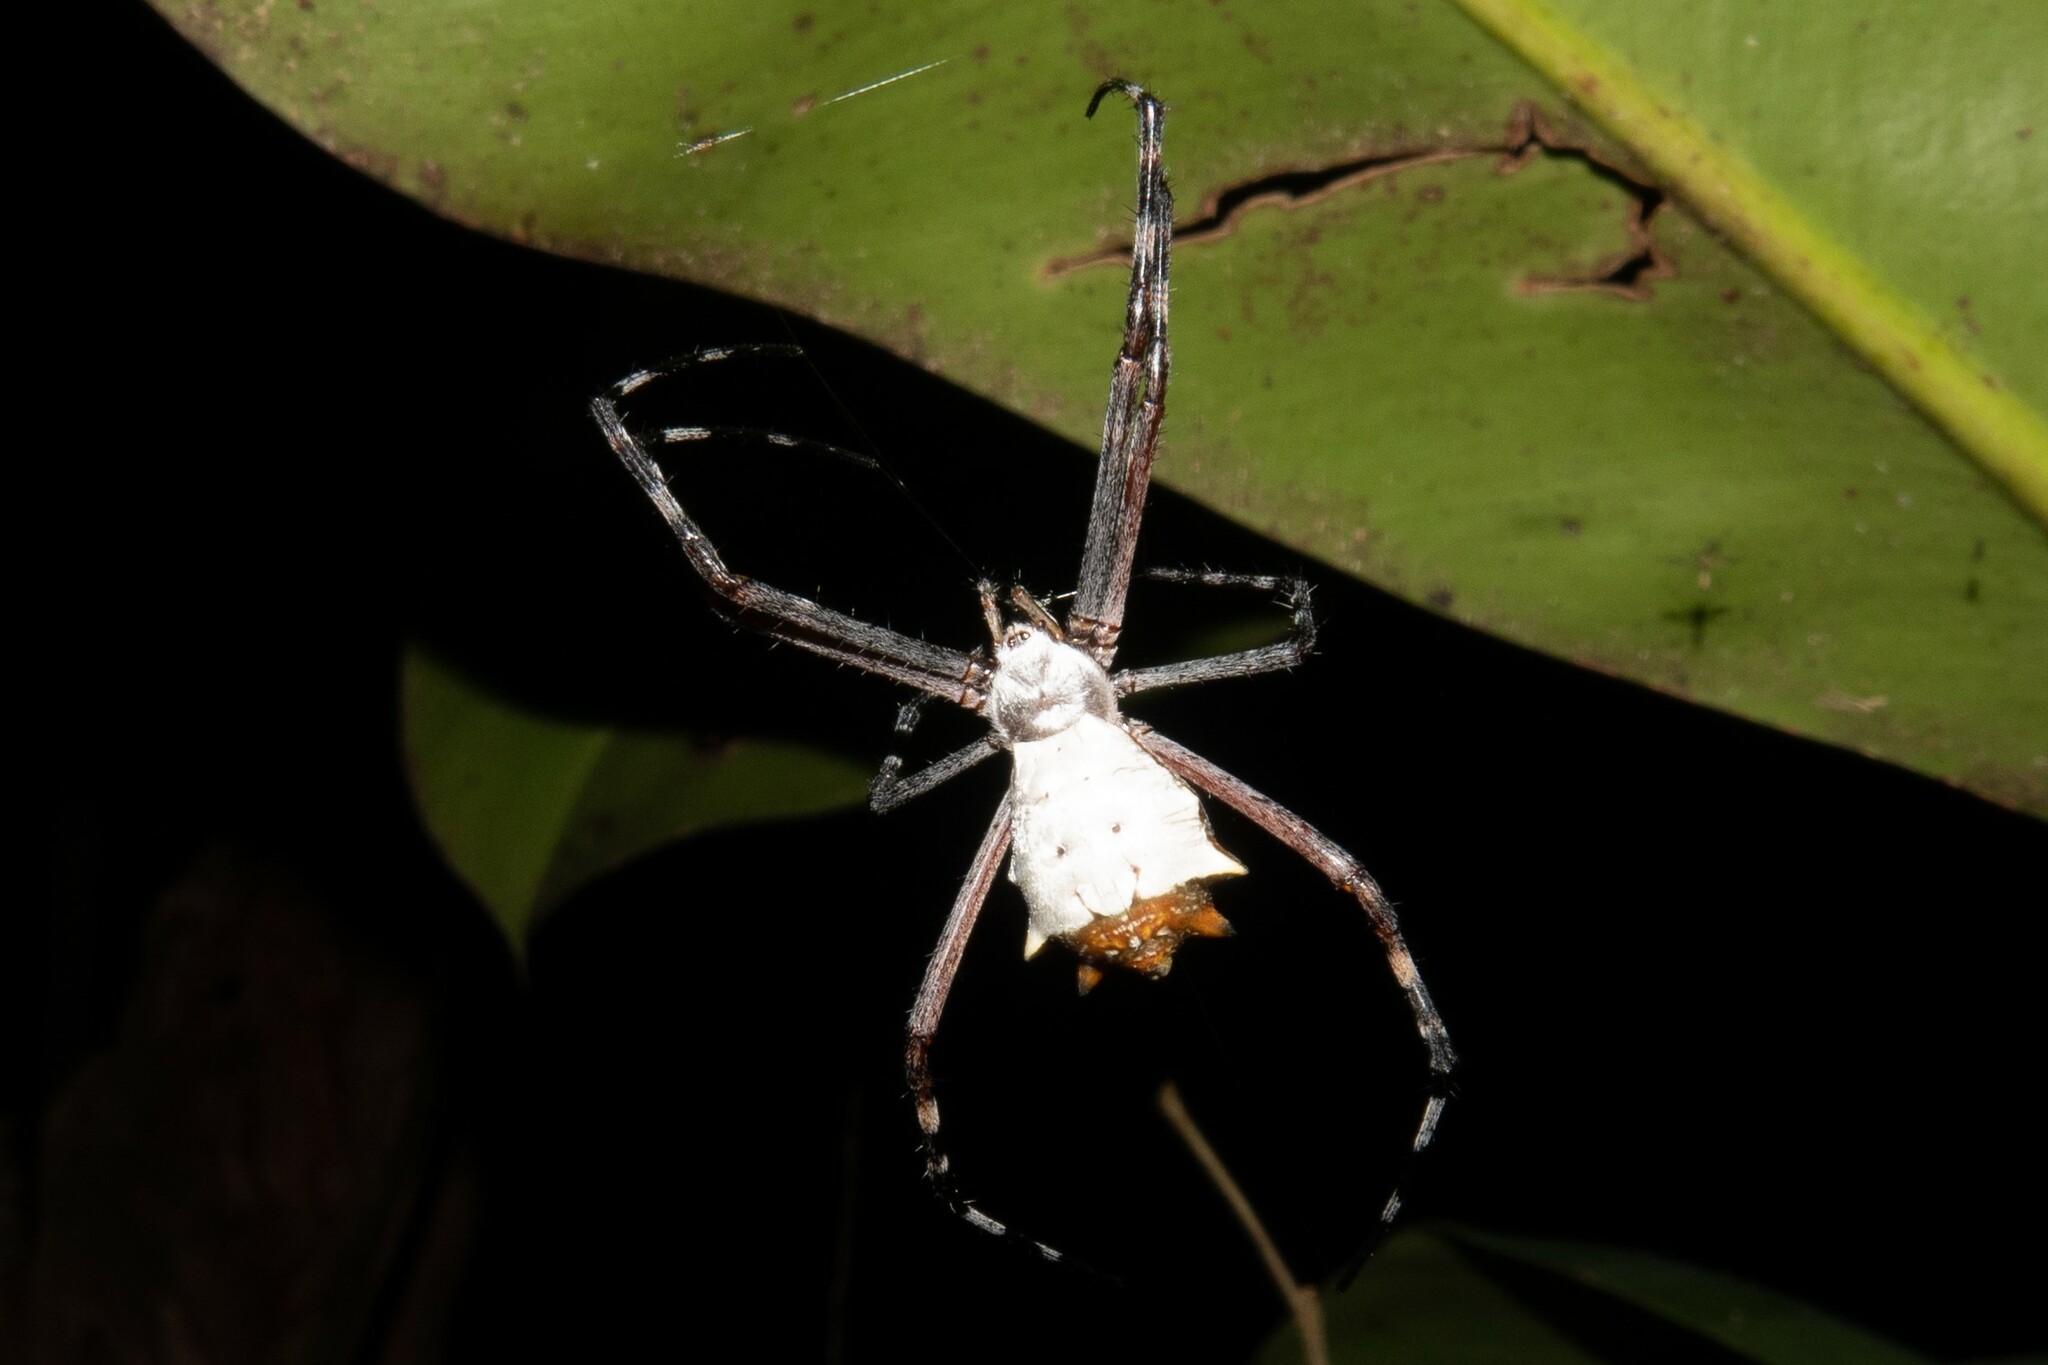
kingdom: Animalia
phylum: Arthropoda
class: Arachnida
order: Araneae
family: Araneidae
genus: Argiope
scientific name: Argiope submaronica
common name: Orb weavers
